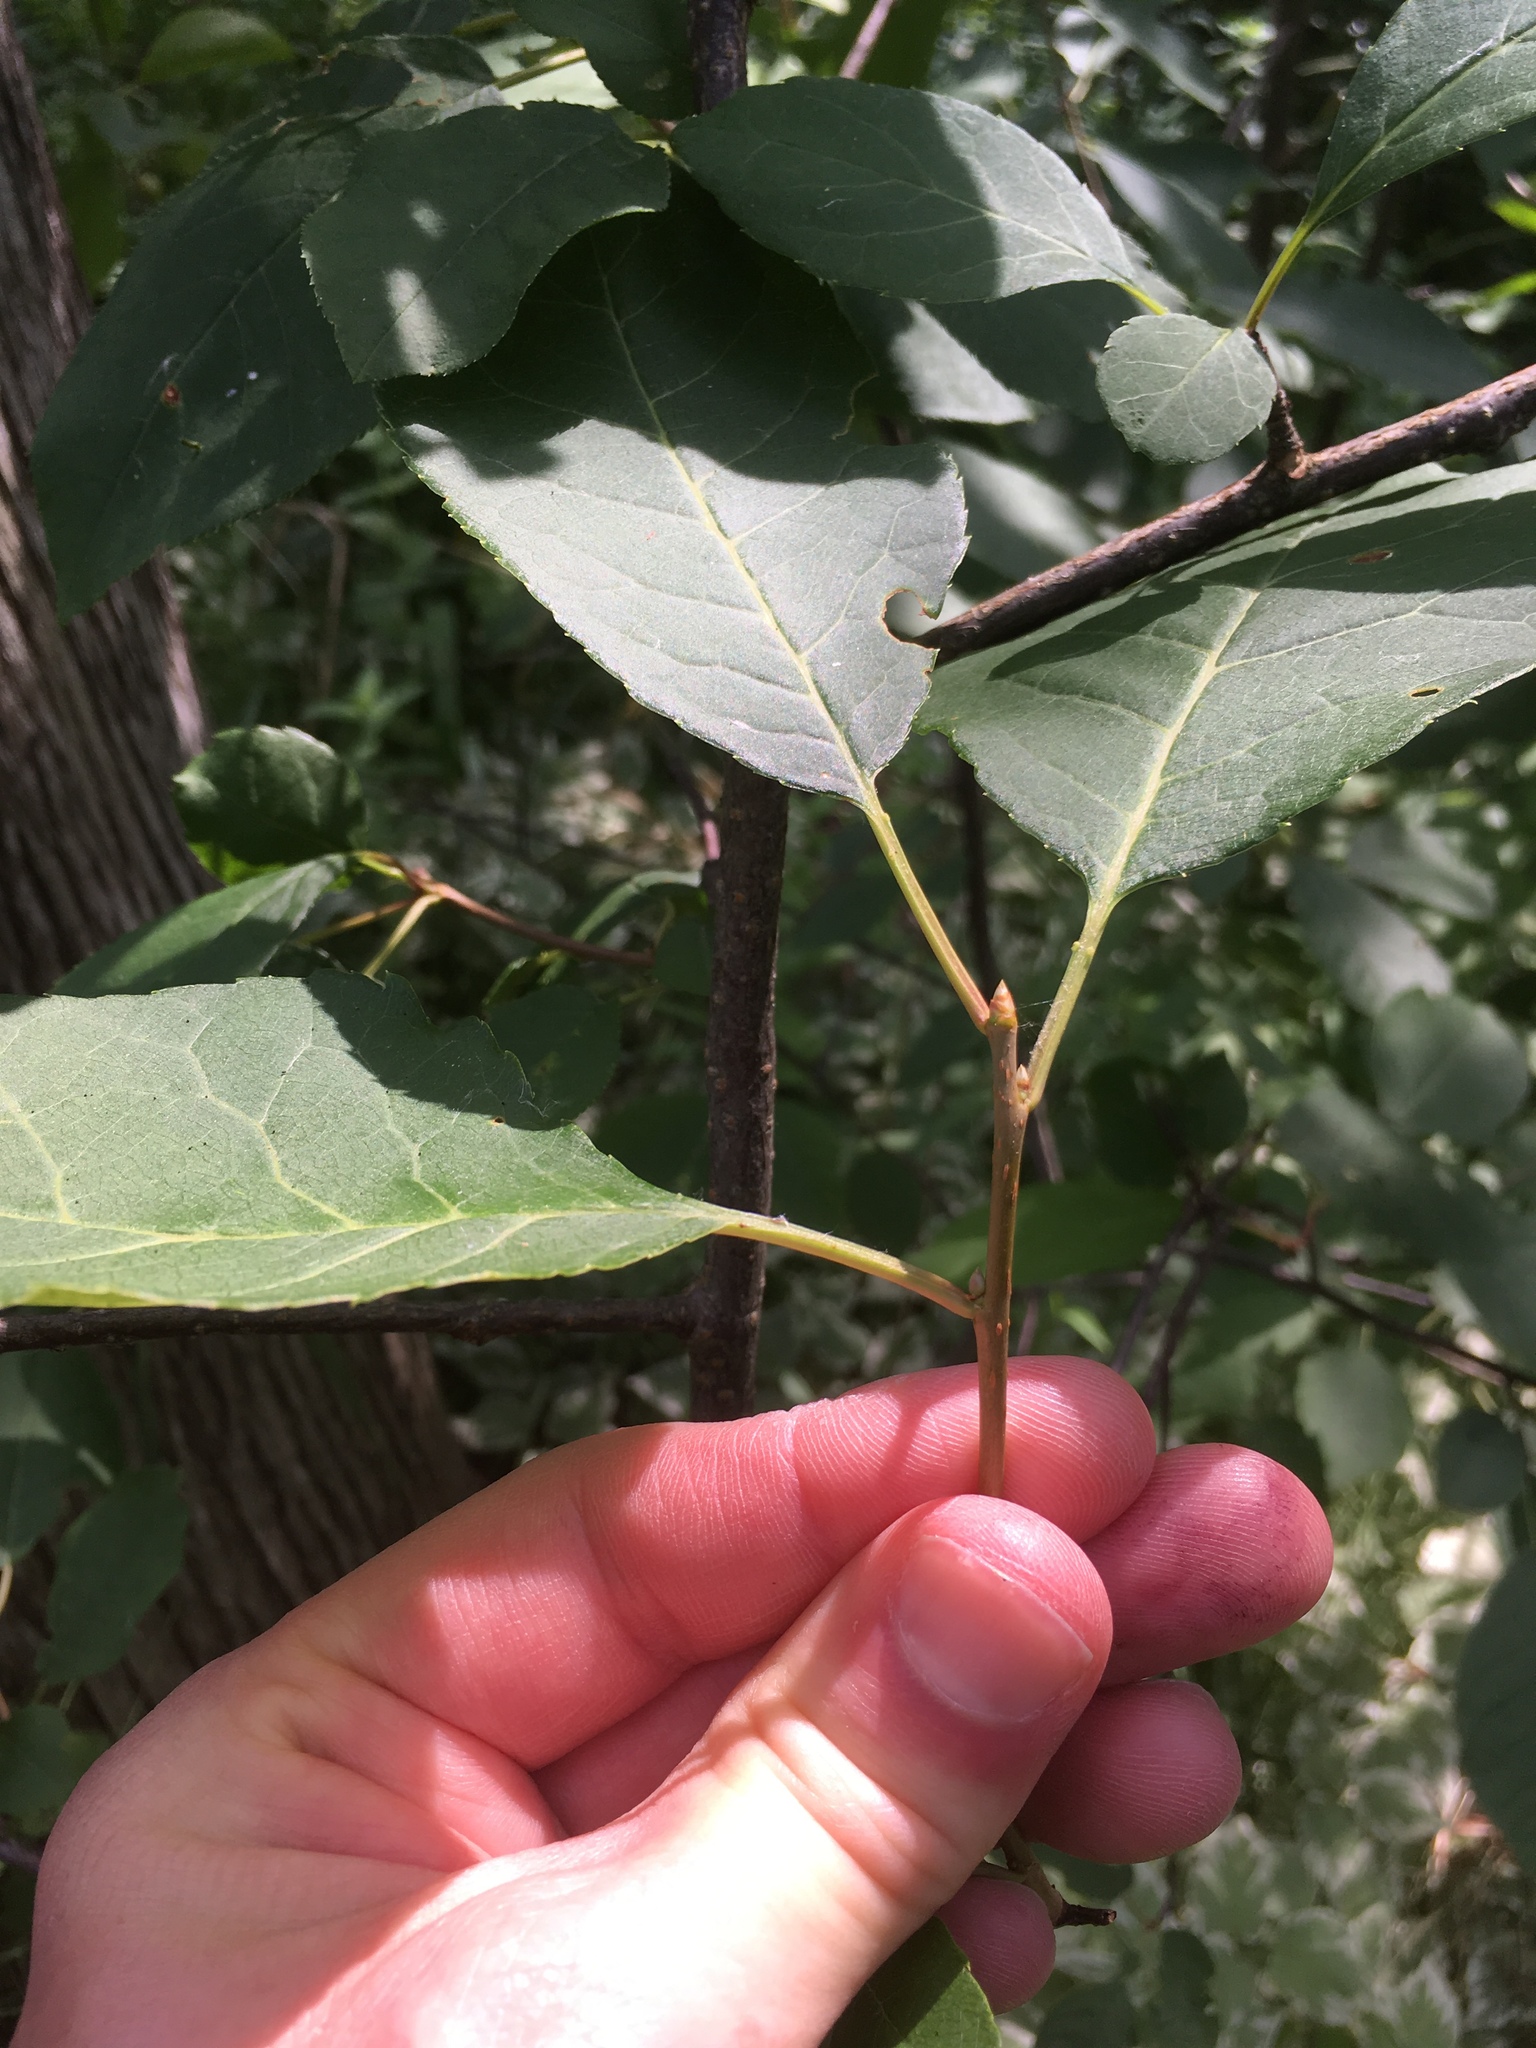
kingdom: Plantae
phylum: Tracheophyta
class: Magnoliopsida
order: Rosales
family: Rosaceae
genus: Prunus
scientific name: Prunus virginiana
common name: Chokecherry
